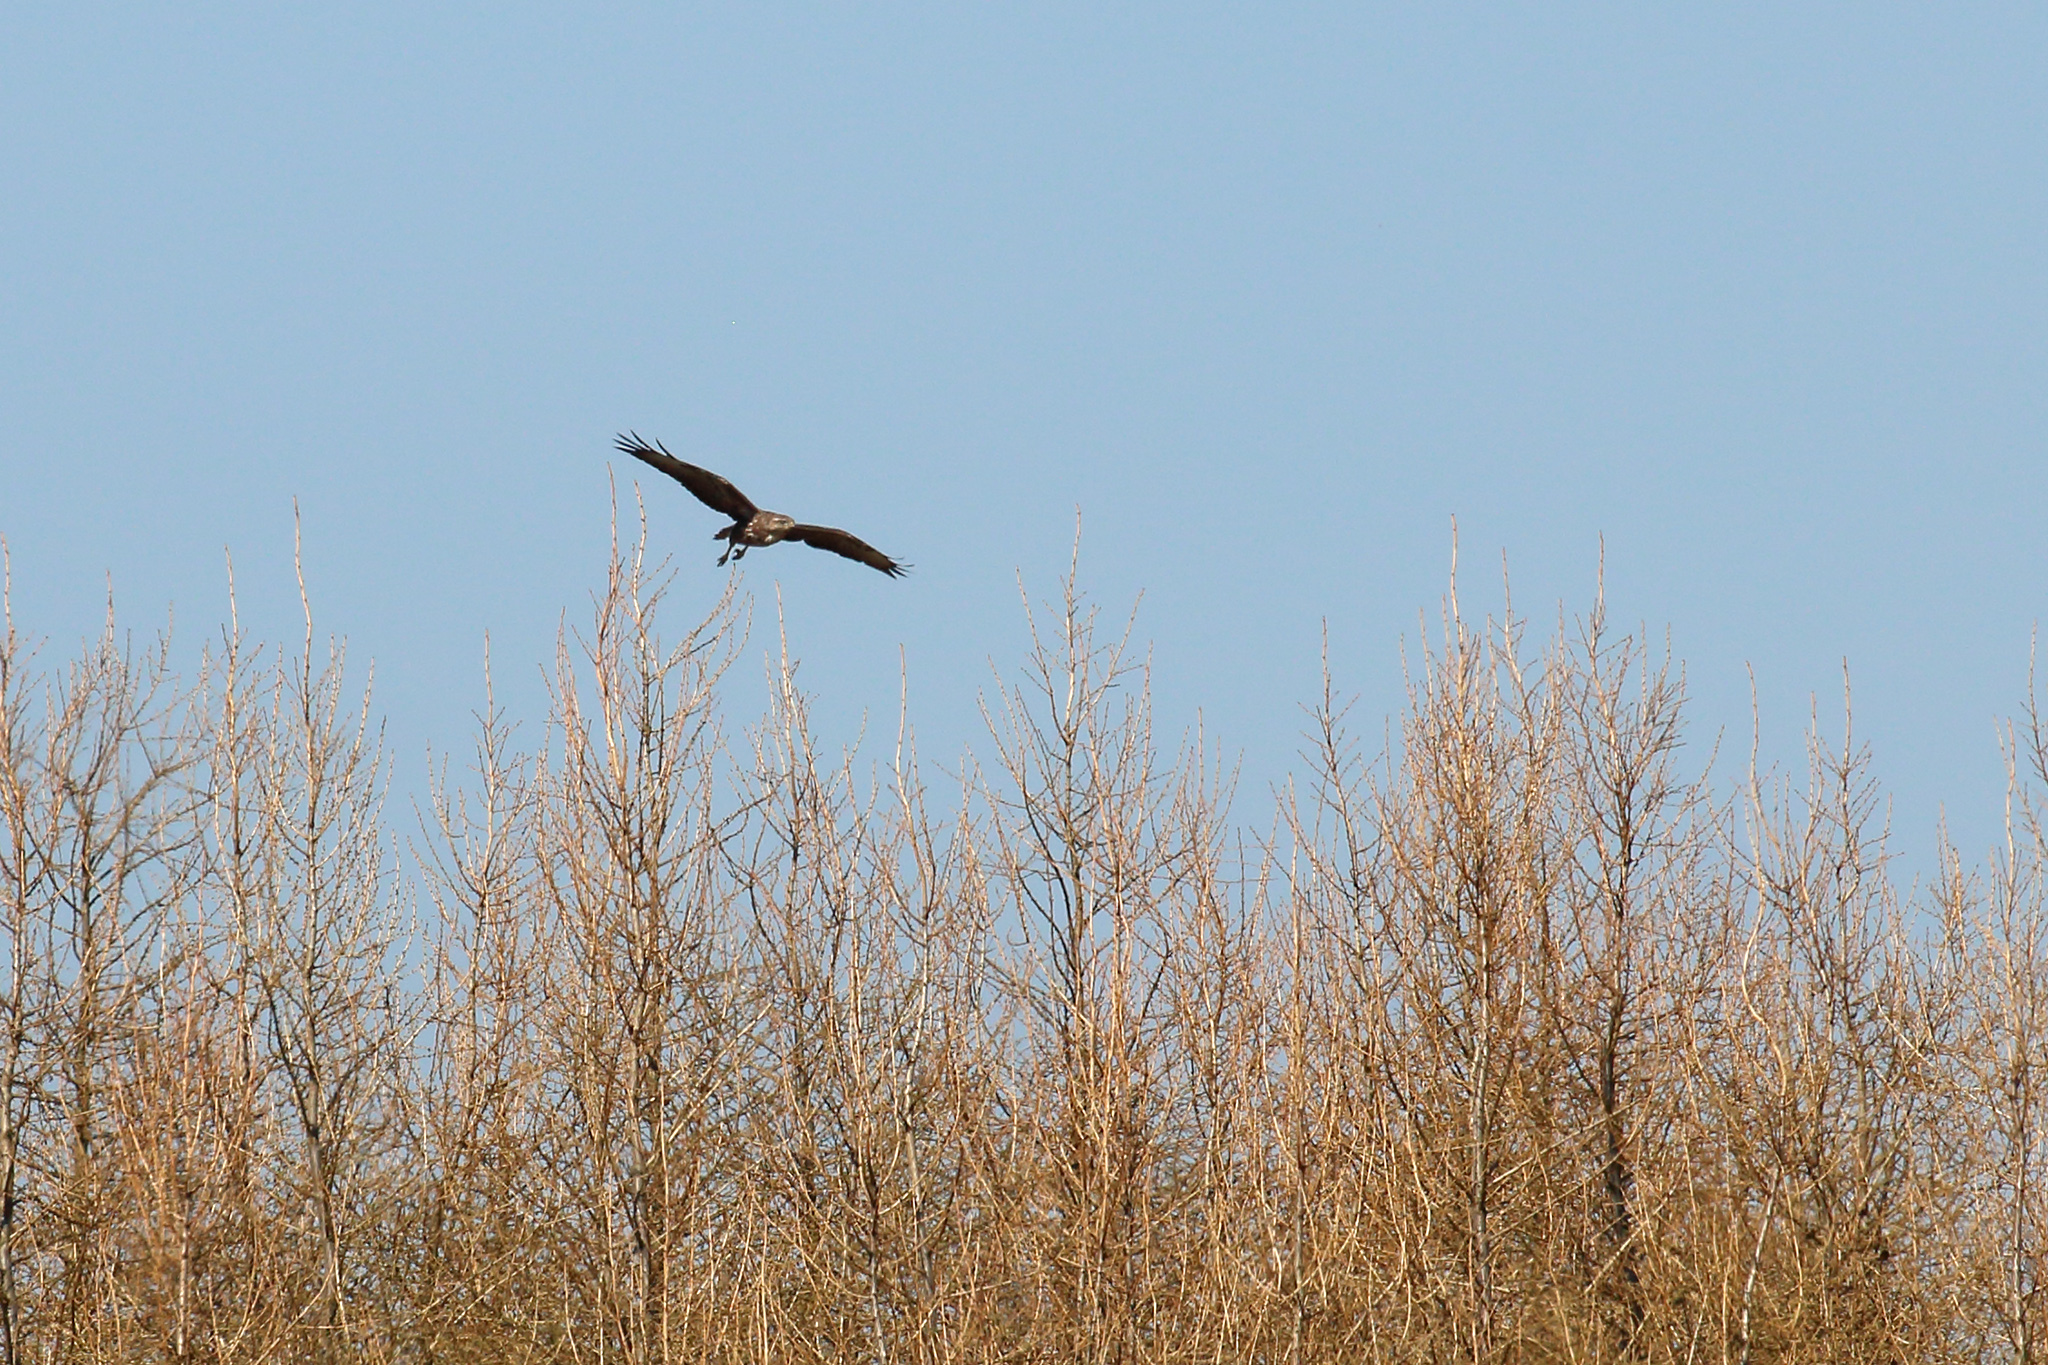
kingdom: Animalia
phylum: Chordata
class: Aves
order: Accipitriformes
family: Accipitridae
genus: Buteo
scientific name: Buteo buteo
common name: Common buzzard
